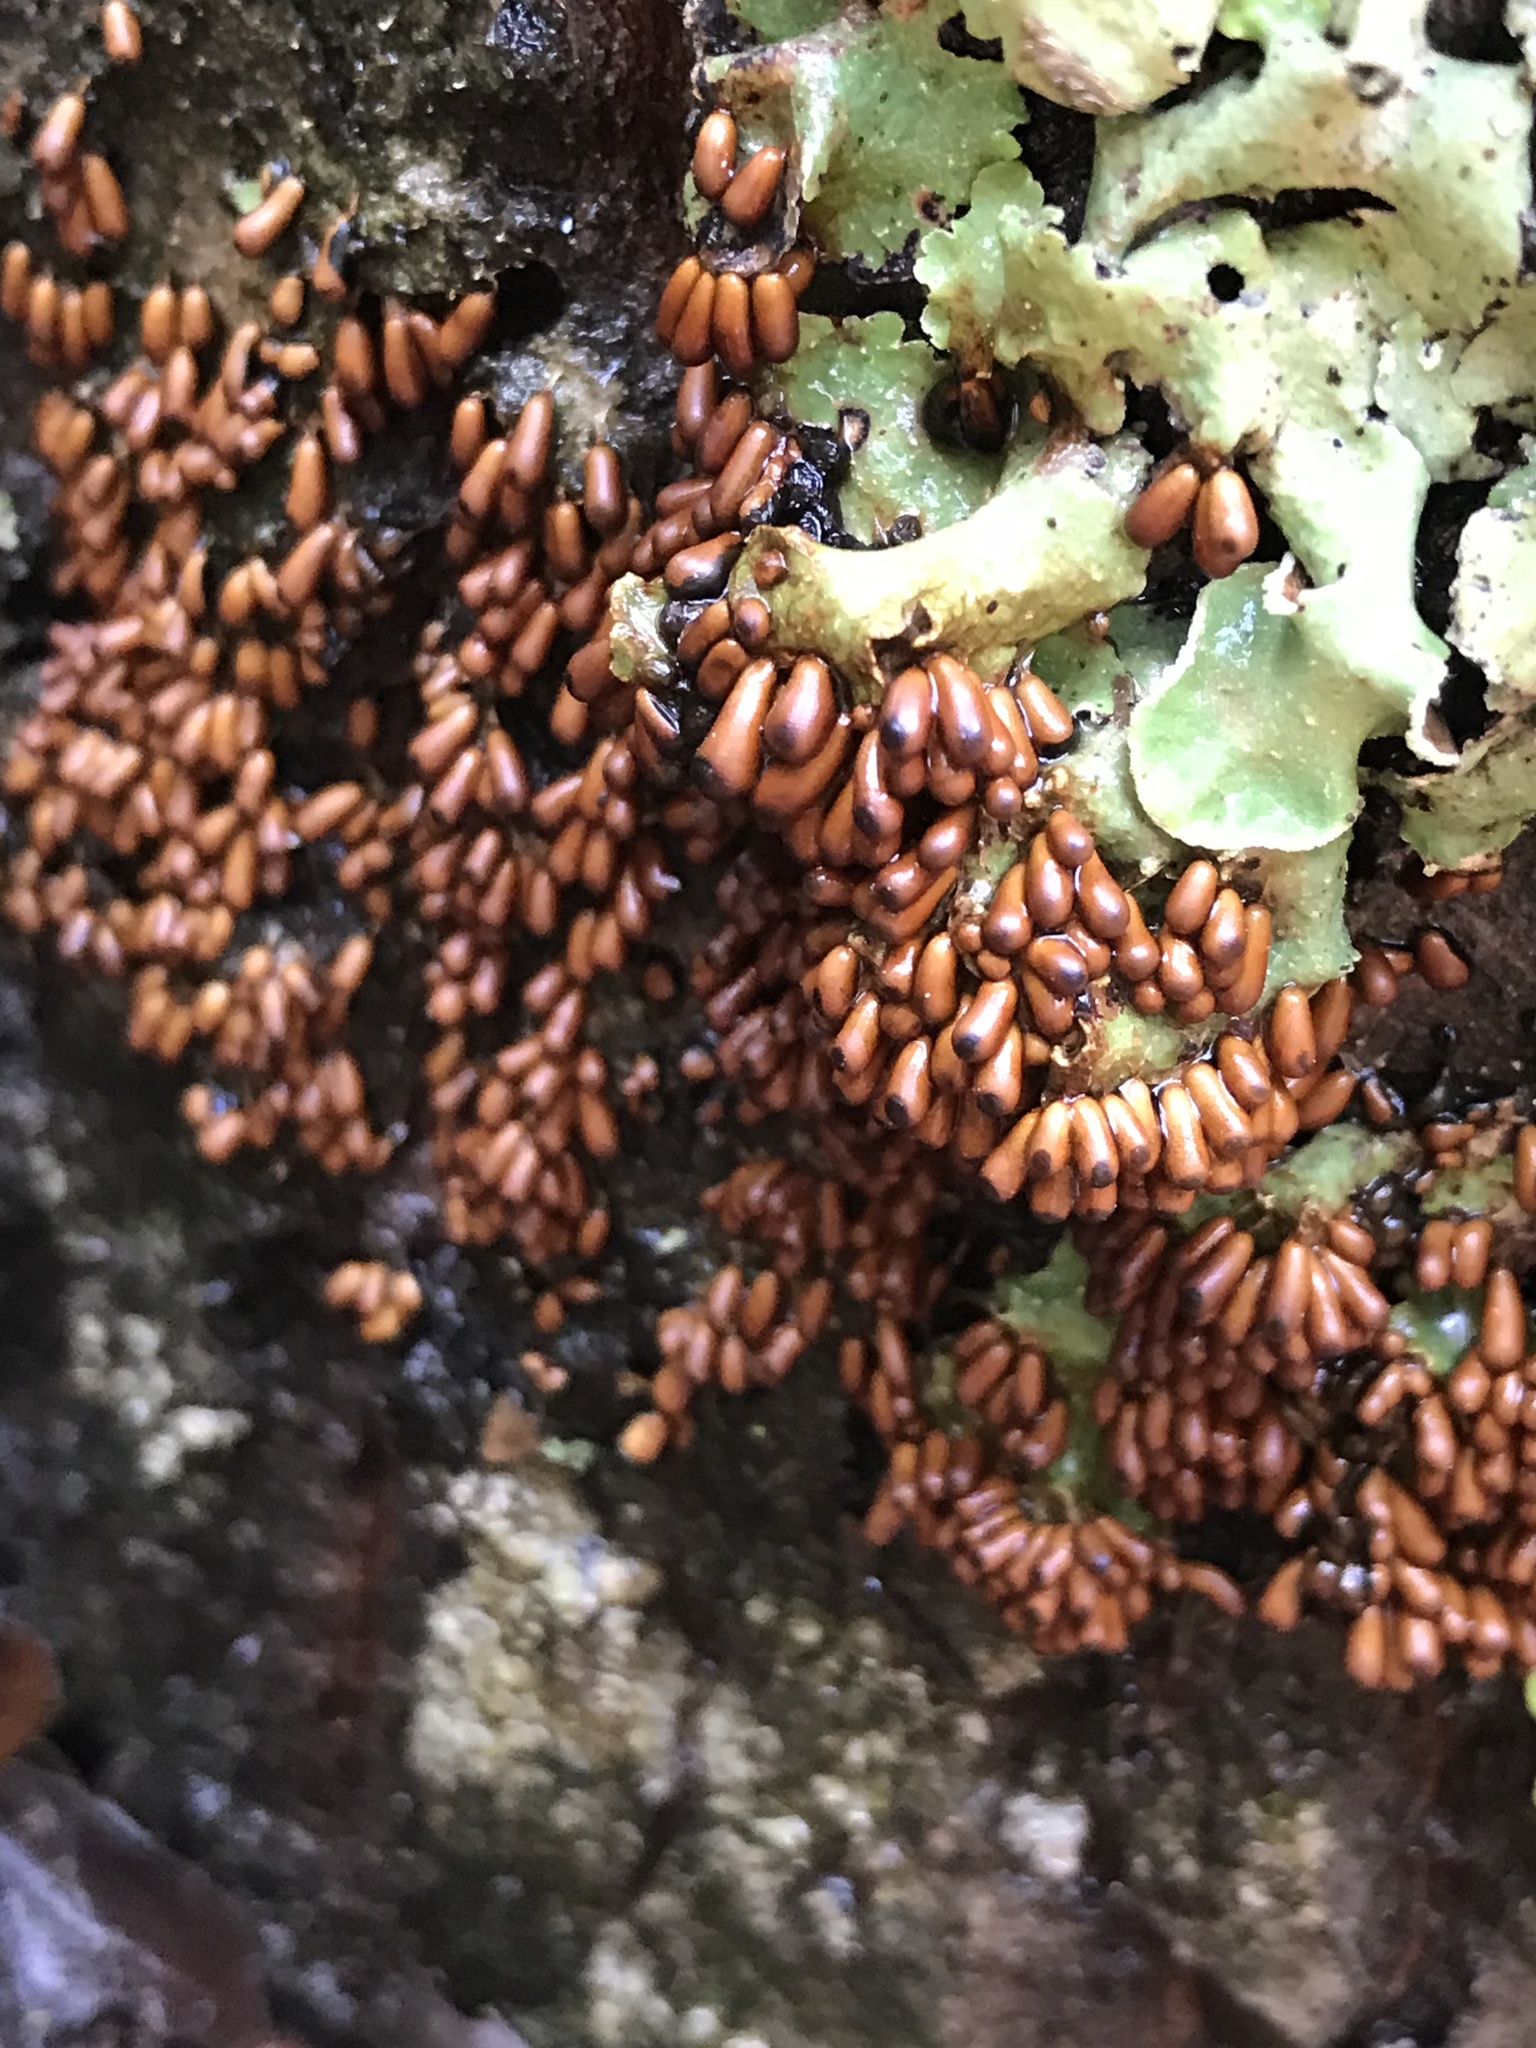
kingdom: Protozoa
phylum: Mycetozoa
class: Myxomycetes
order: Physarales
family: Physaraceae
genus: Leocarpus
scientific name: Leocarpus fragilis
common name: Insect-egg slime
